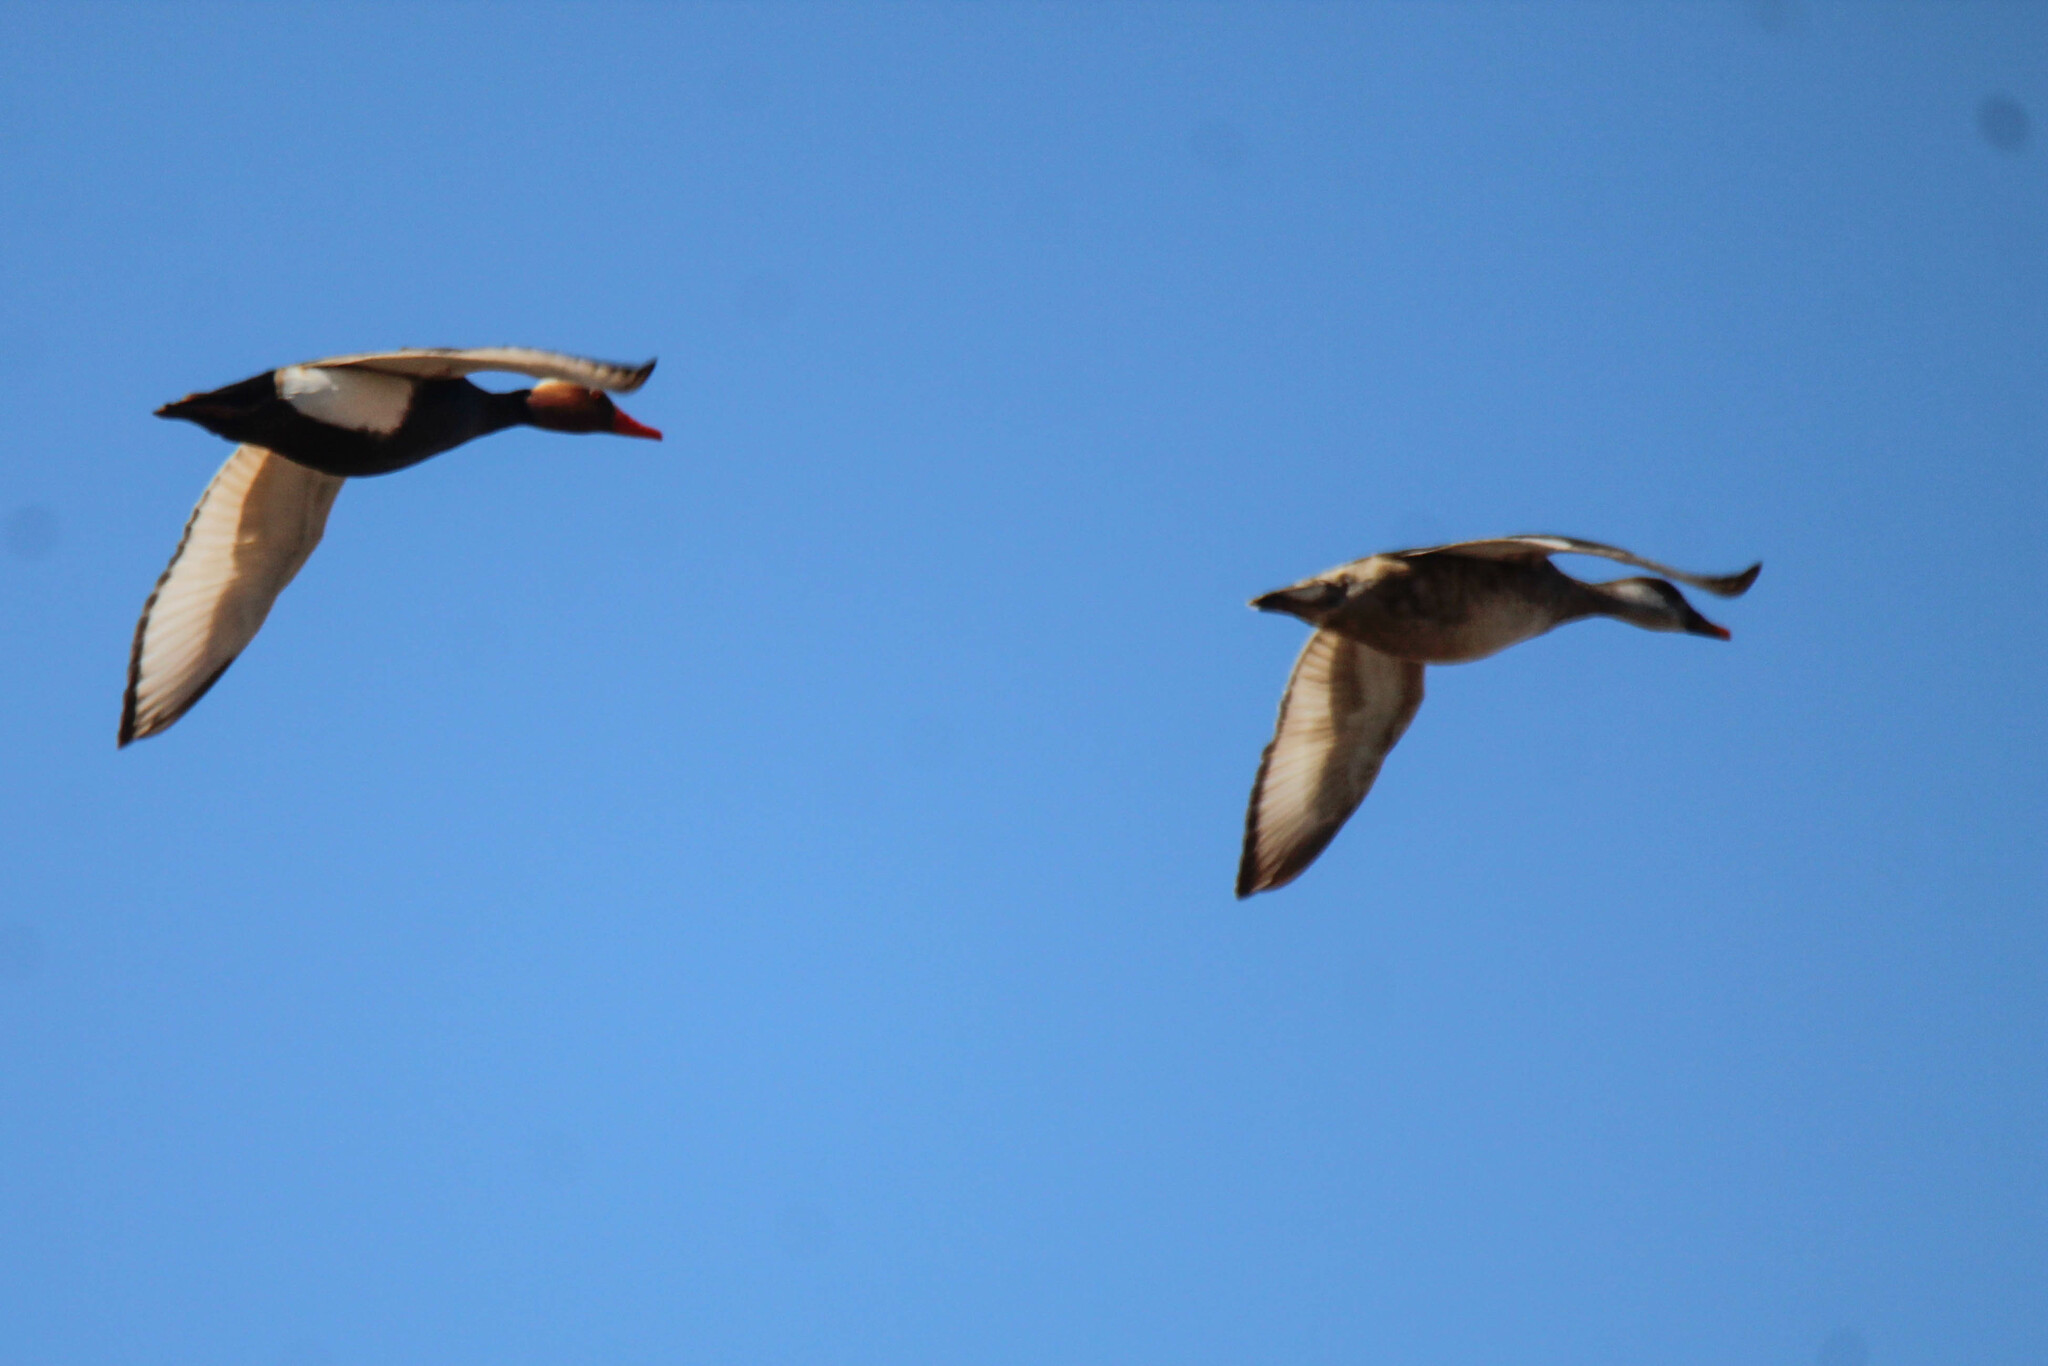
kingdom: Animalia
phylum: Chordata
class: Aves
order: Anseriformes
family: Anatidae
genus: Netta
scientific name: Netta rufina
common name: Red-crested pochard
